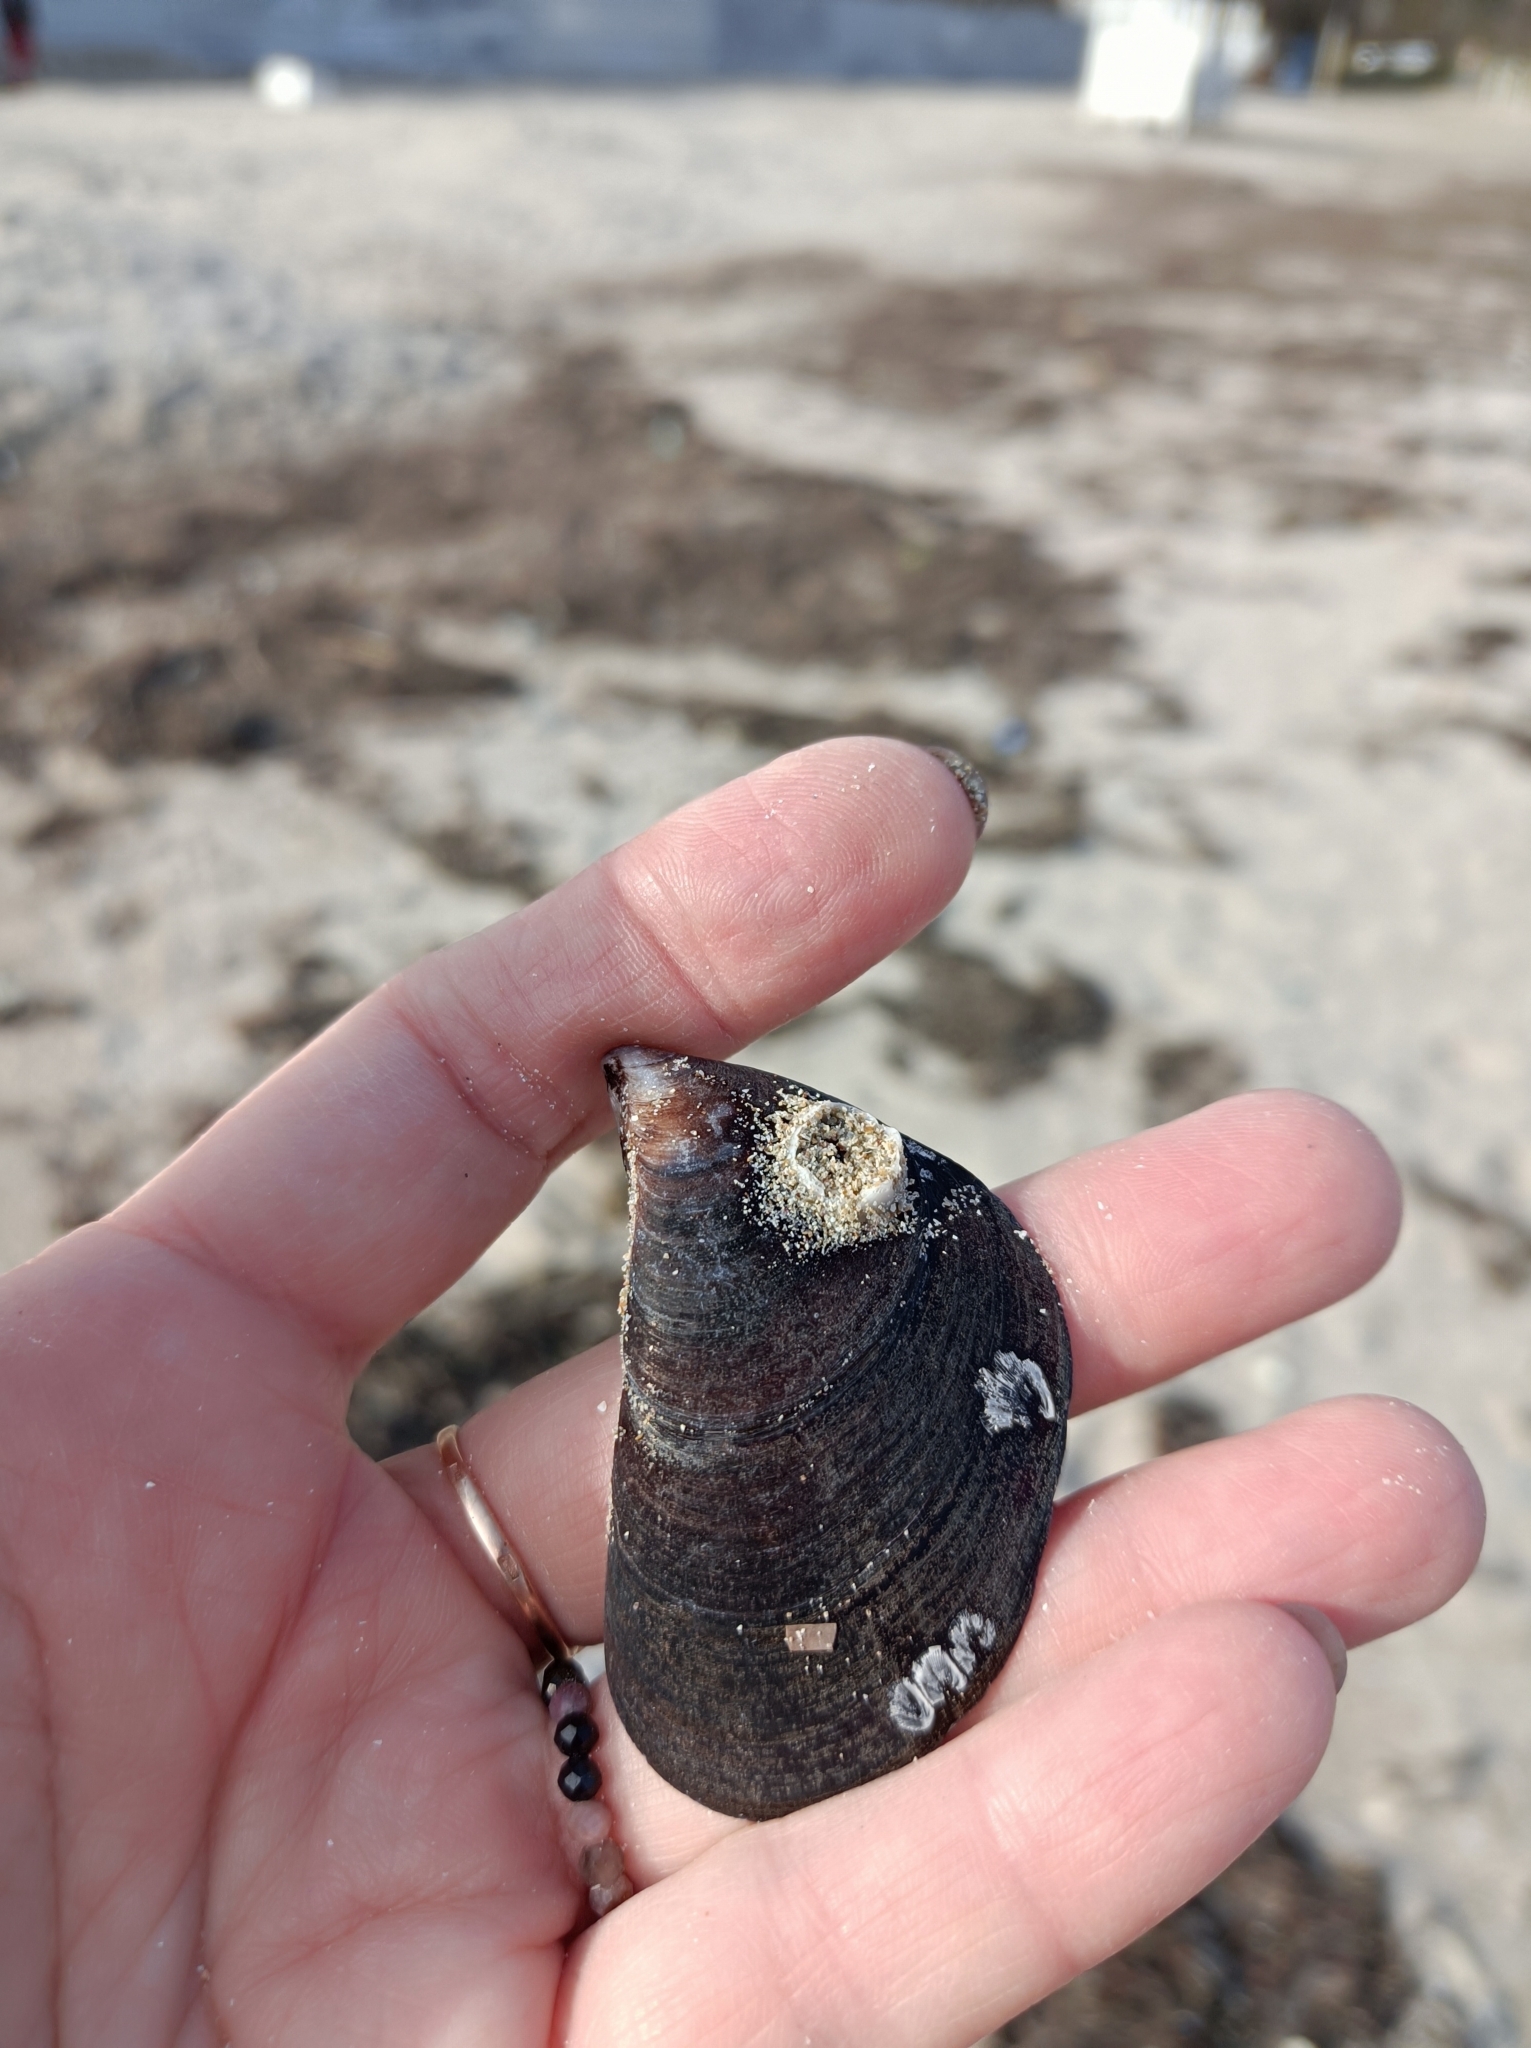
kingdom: Animalia
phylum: Mollusca
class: Bivalvia
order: Mytilida
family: Mytilidae
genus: Mytilus
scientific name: Mytilus galloprovincialis
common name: Mediterranean mussel
